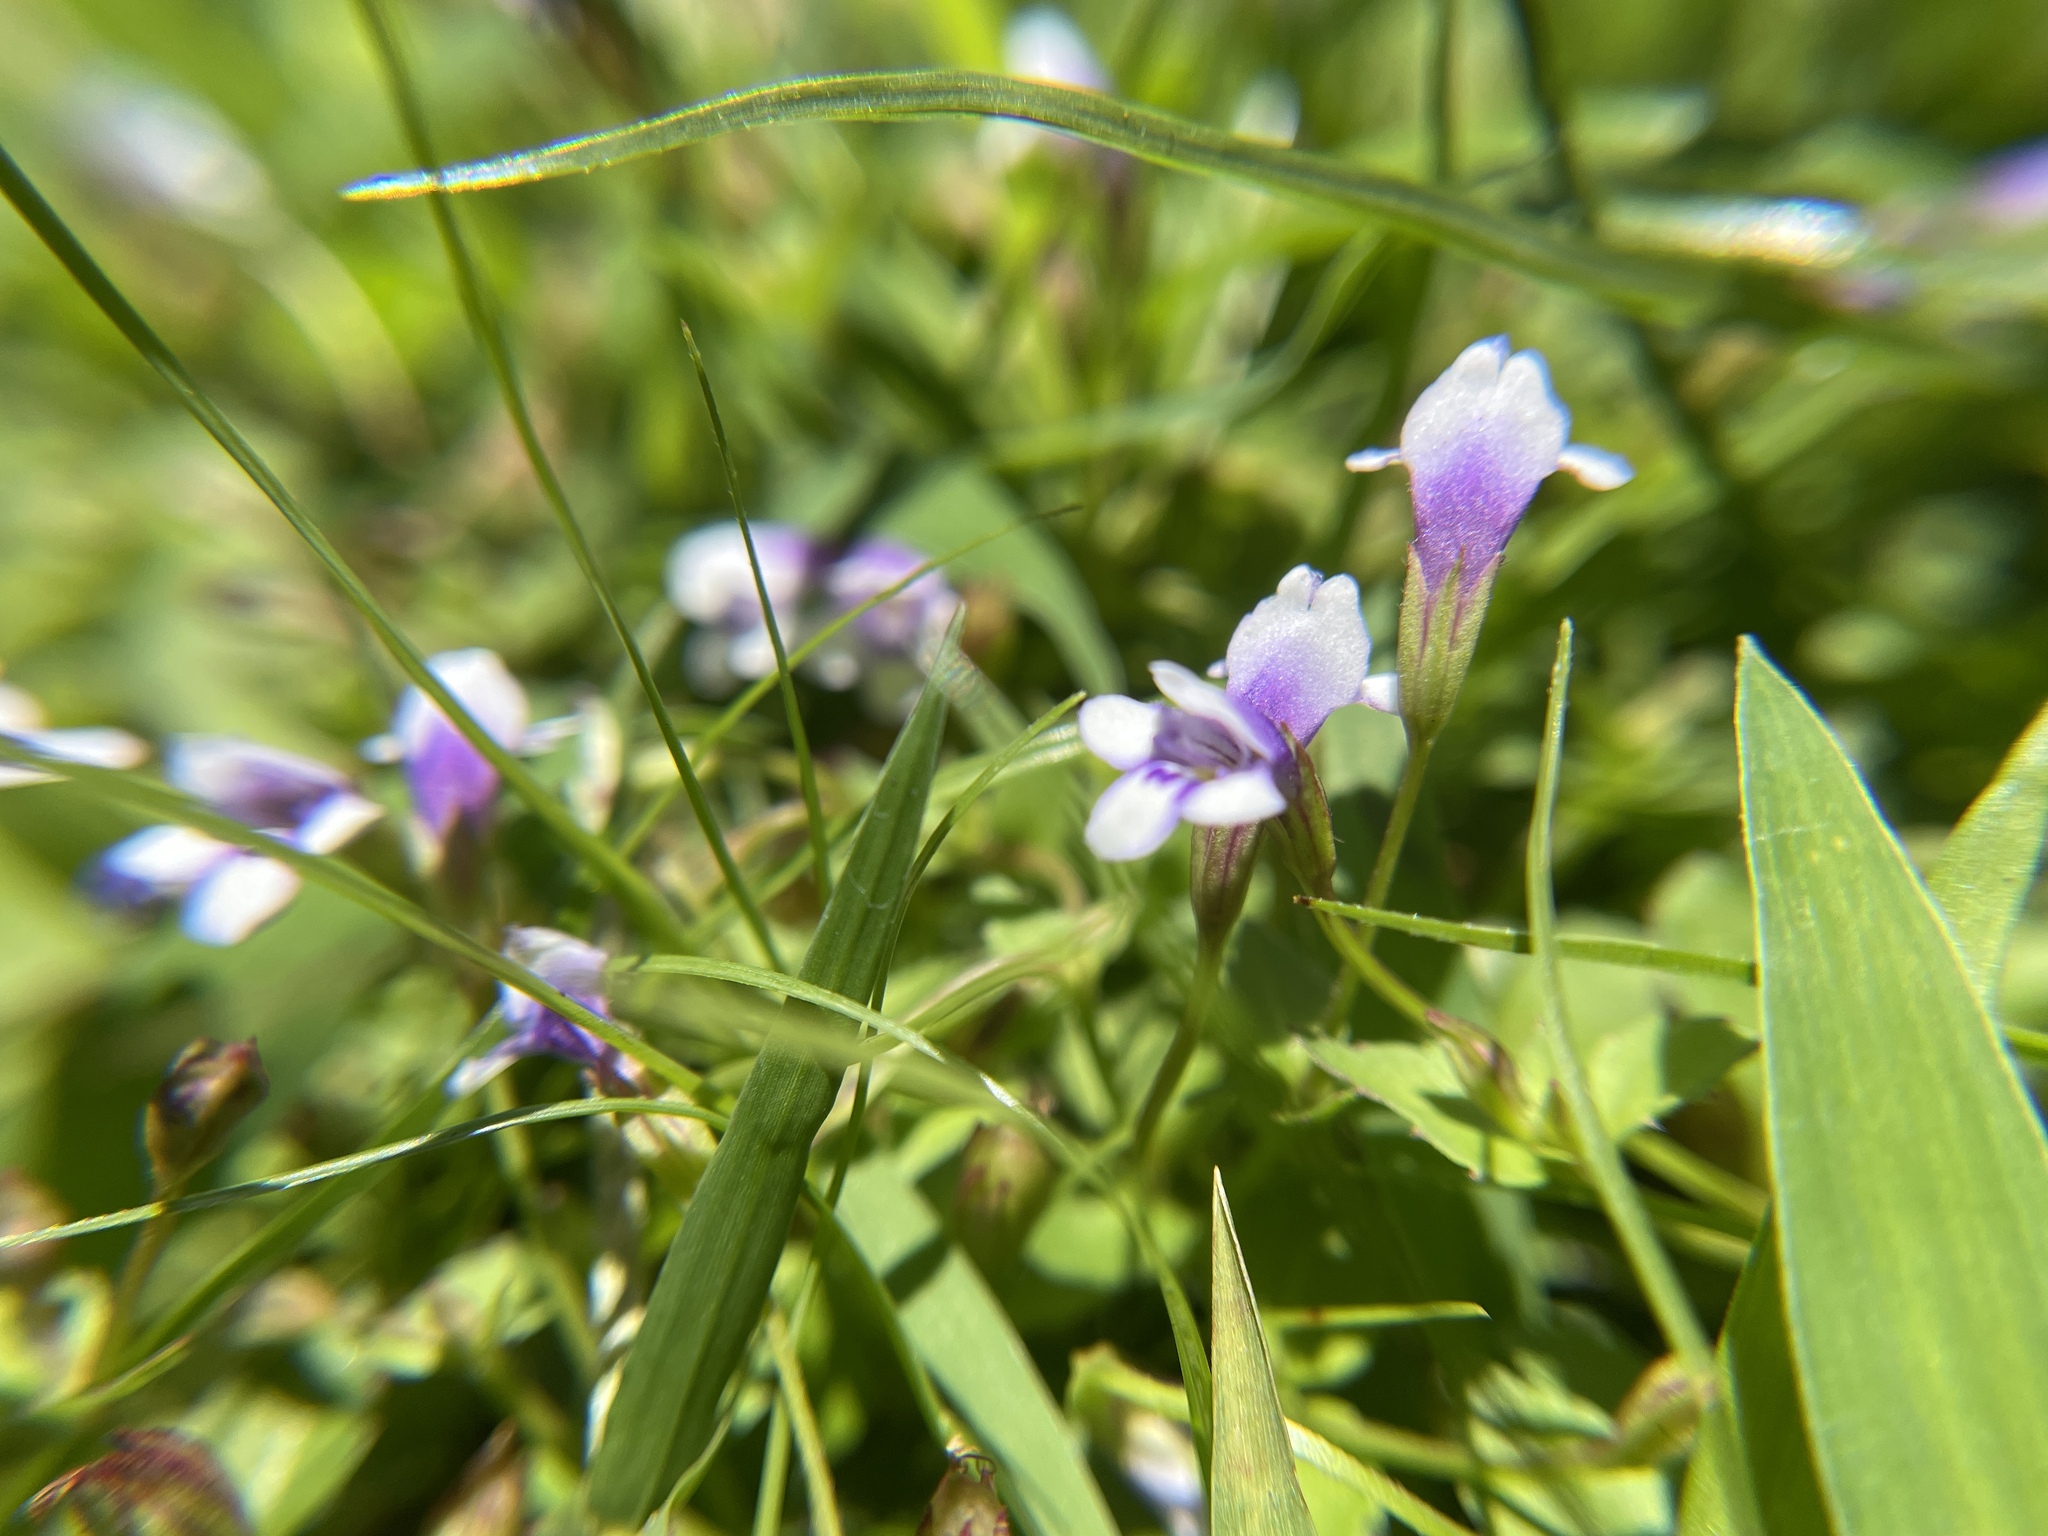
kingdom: Plantae
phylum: Tracheophyta
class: Magnoliopsida
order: Lamiales
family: Linderniaceae
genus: Torenia
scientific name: Torenia crustacea
